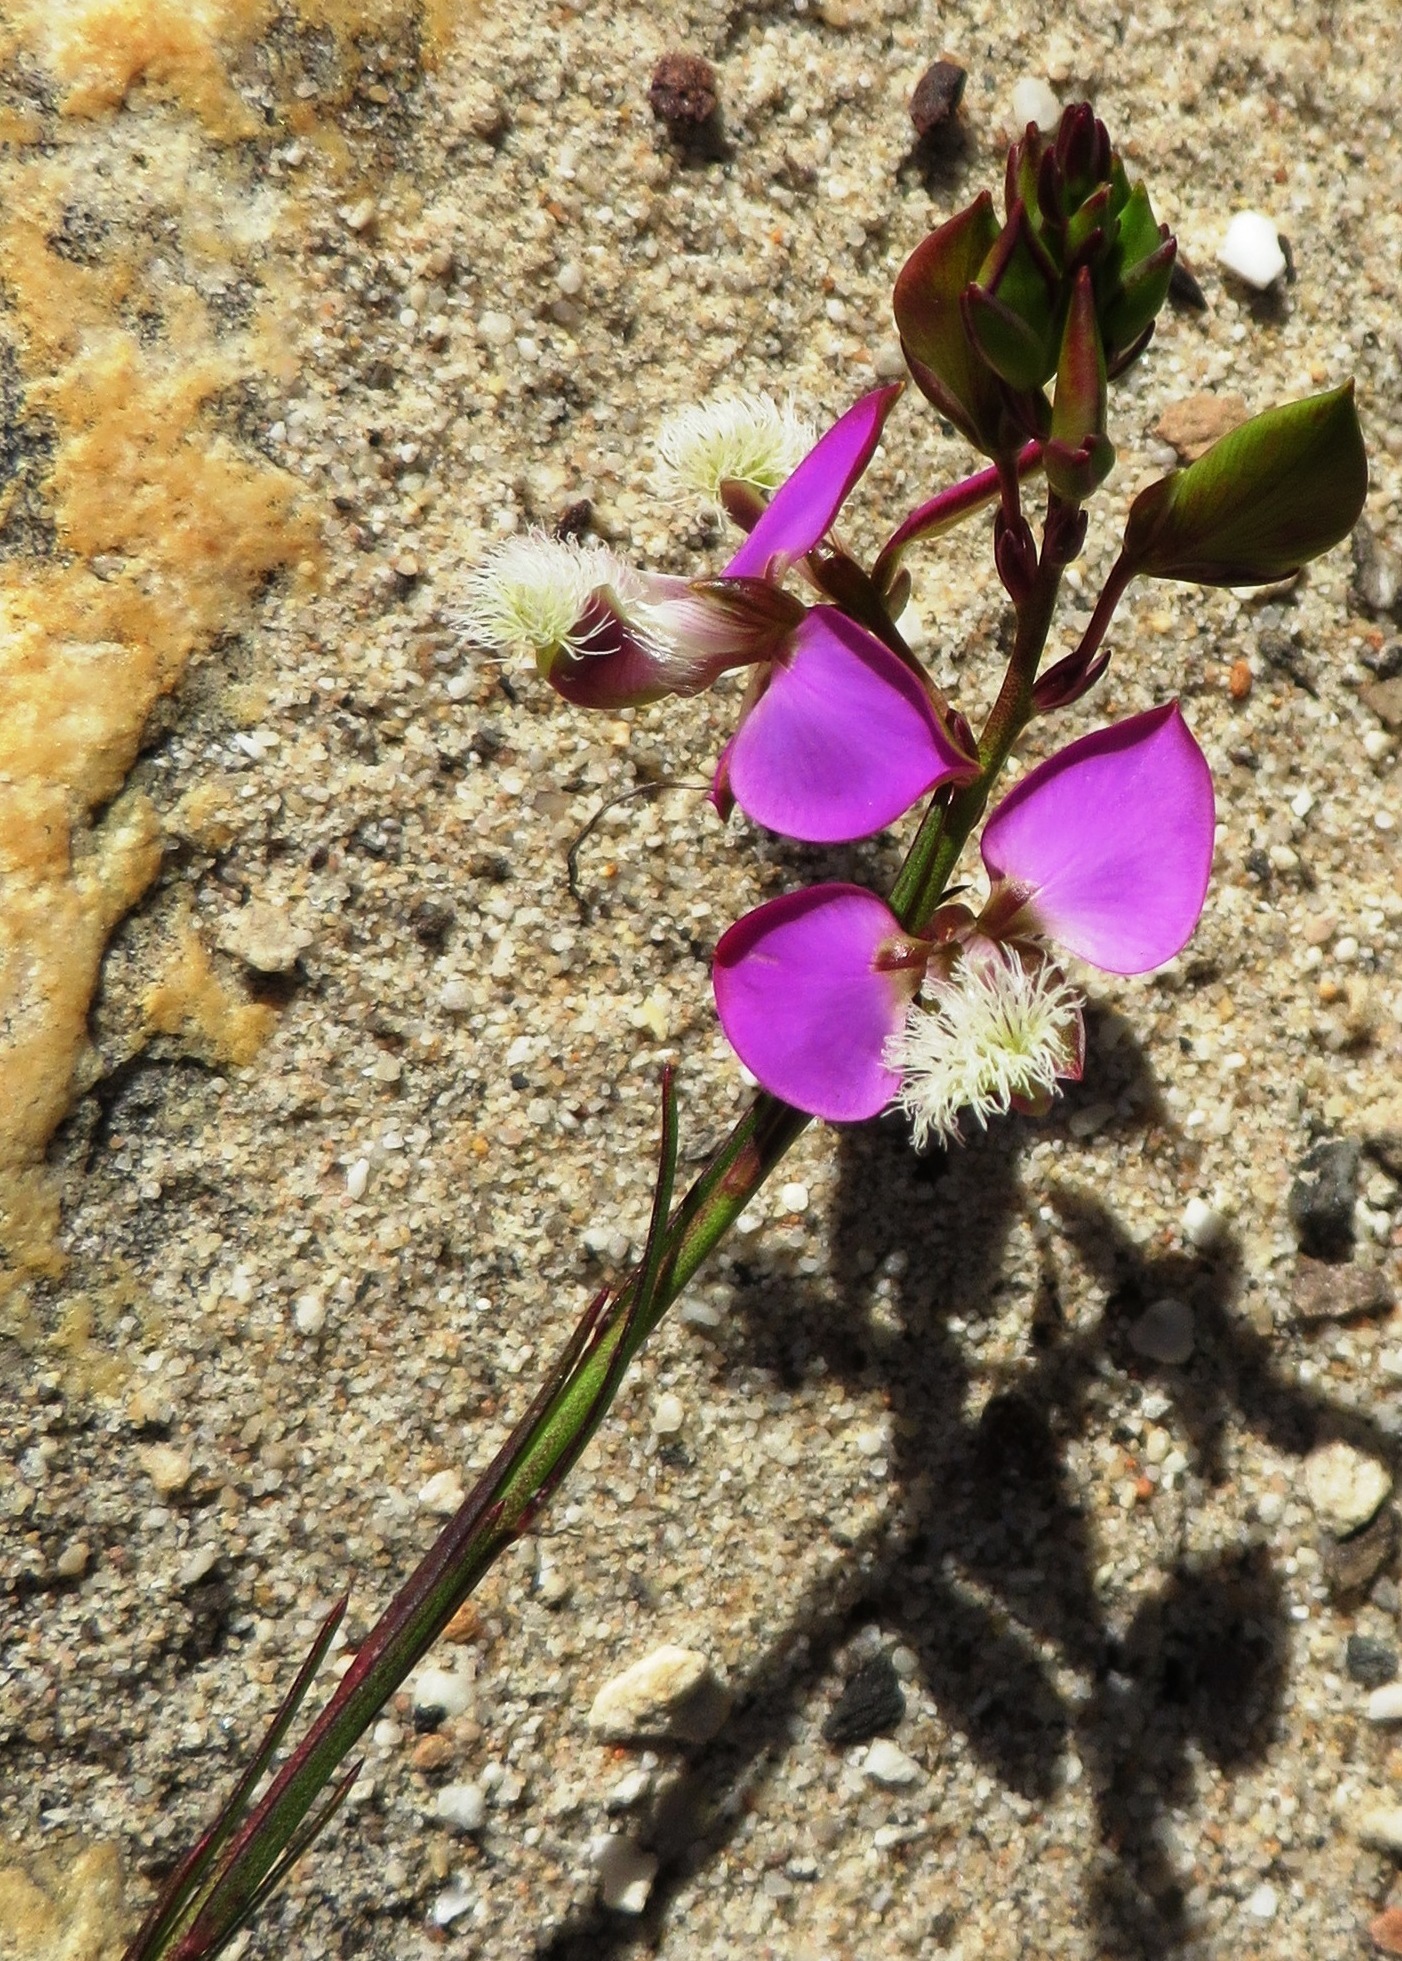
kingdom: Plantae
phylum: Tracheophyta
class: Magnoliopsida
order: Fabales
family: Polygalaceae
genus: Polygala
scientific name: Polygala bracteolata
